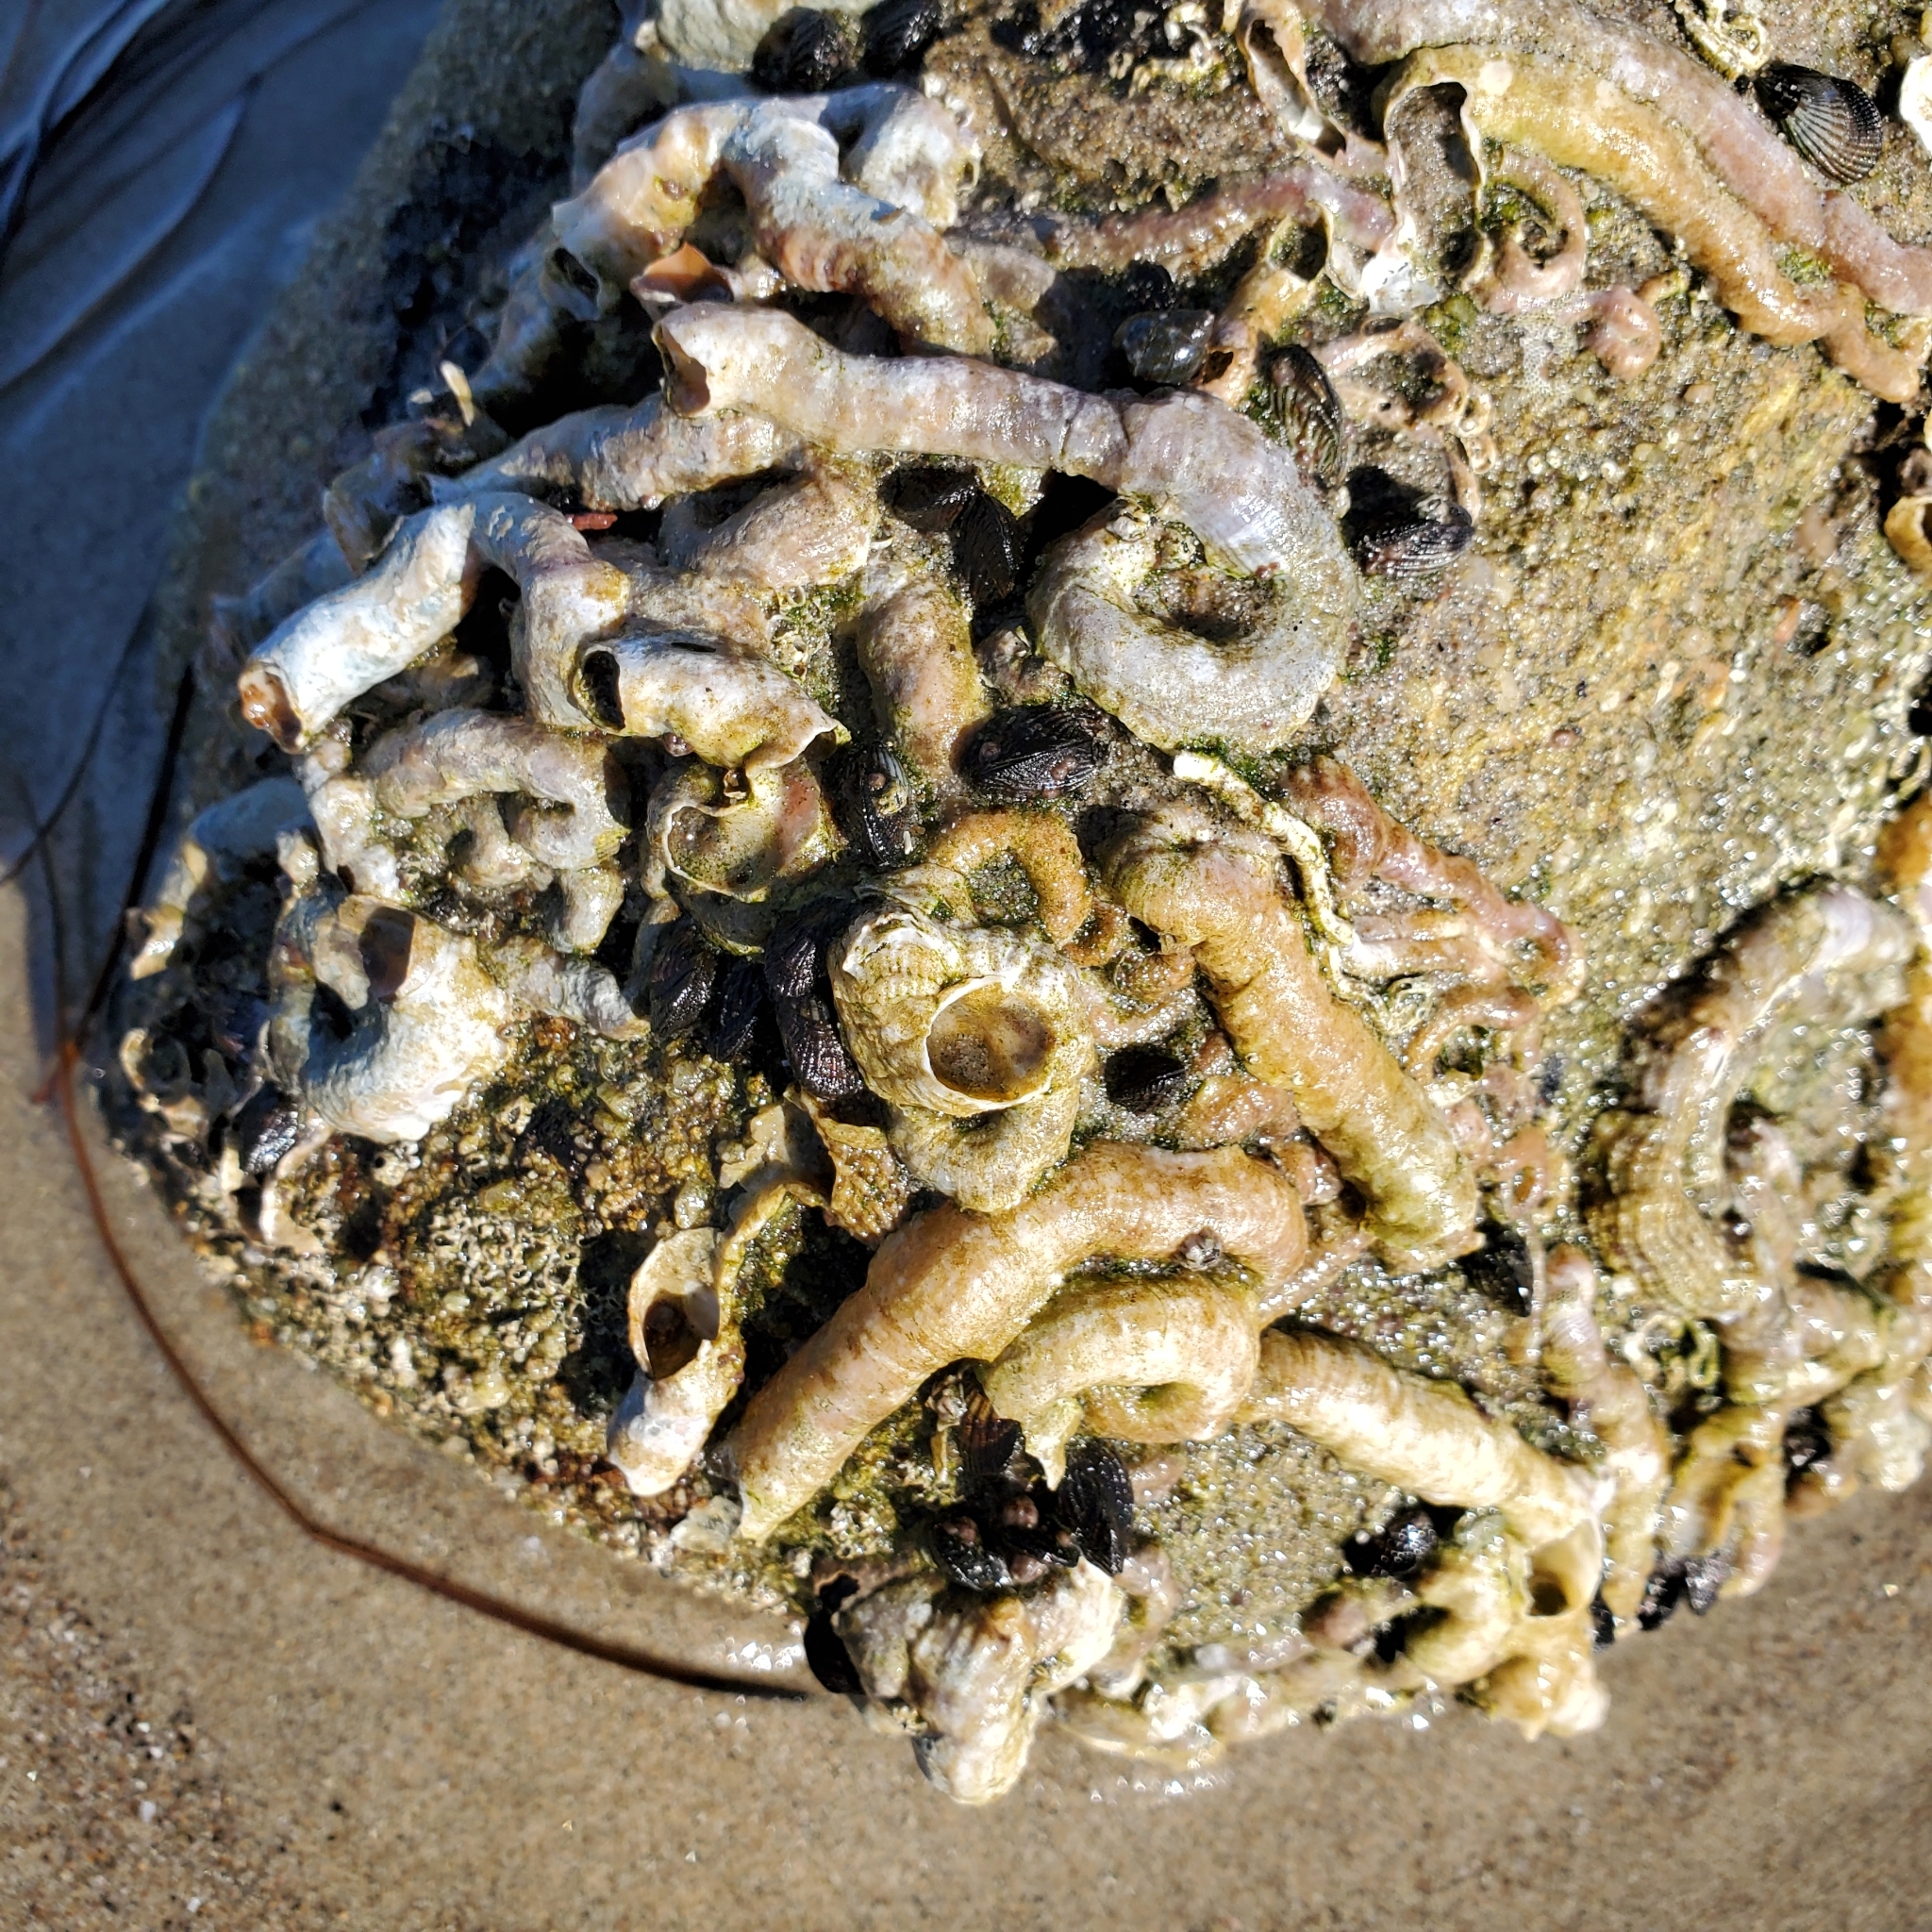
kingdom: Animalia
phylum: Mollusca
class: Gastropoda
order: Littorinimorpha
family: Vermetidae
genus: Thylacodes
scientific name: Thylacodes squamigerus
